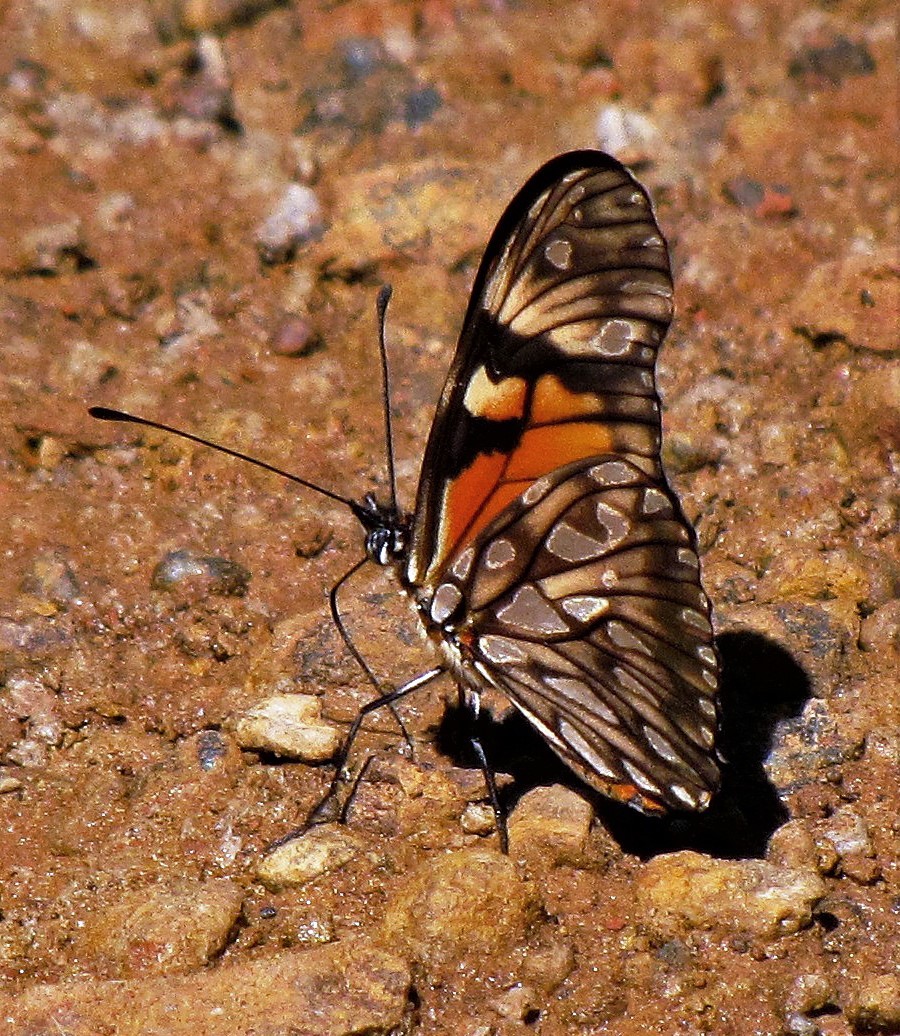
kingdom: Animalia
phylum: Arthropoda
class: Insecta
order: Lepidoptera
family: Nymphalidae
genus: Dione
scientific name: Dione juno
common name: Juno silverspot
